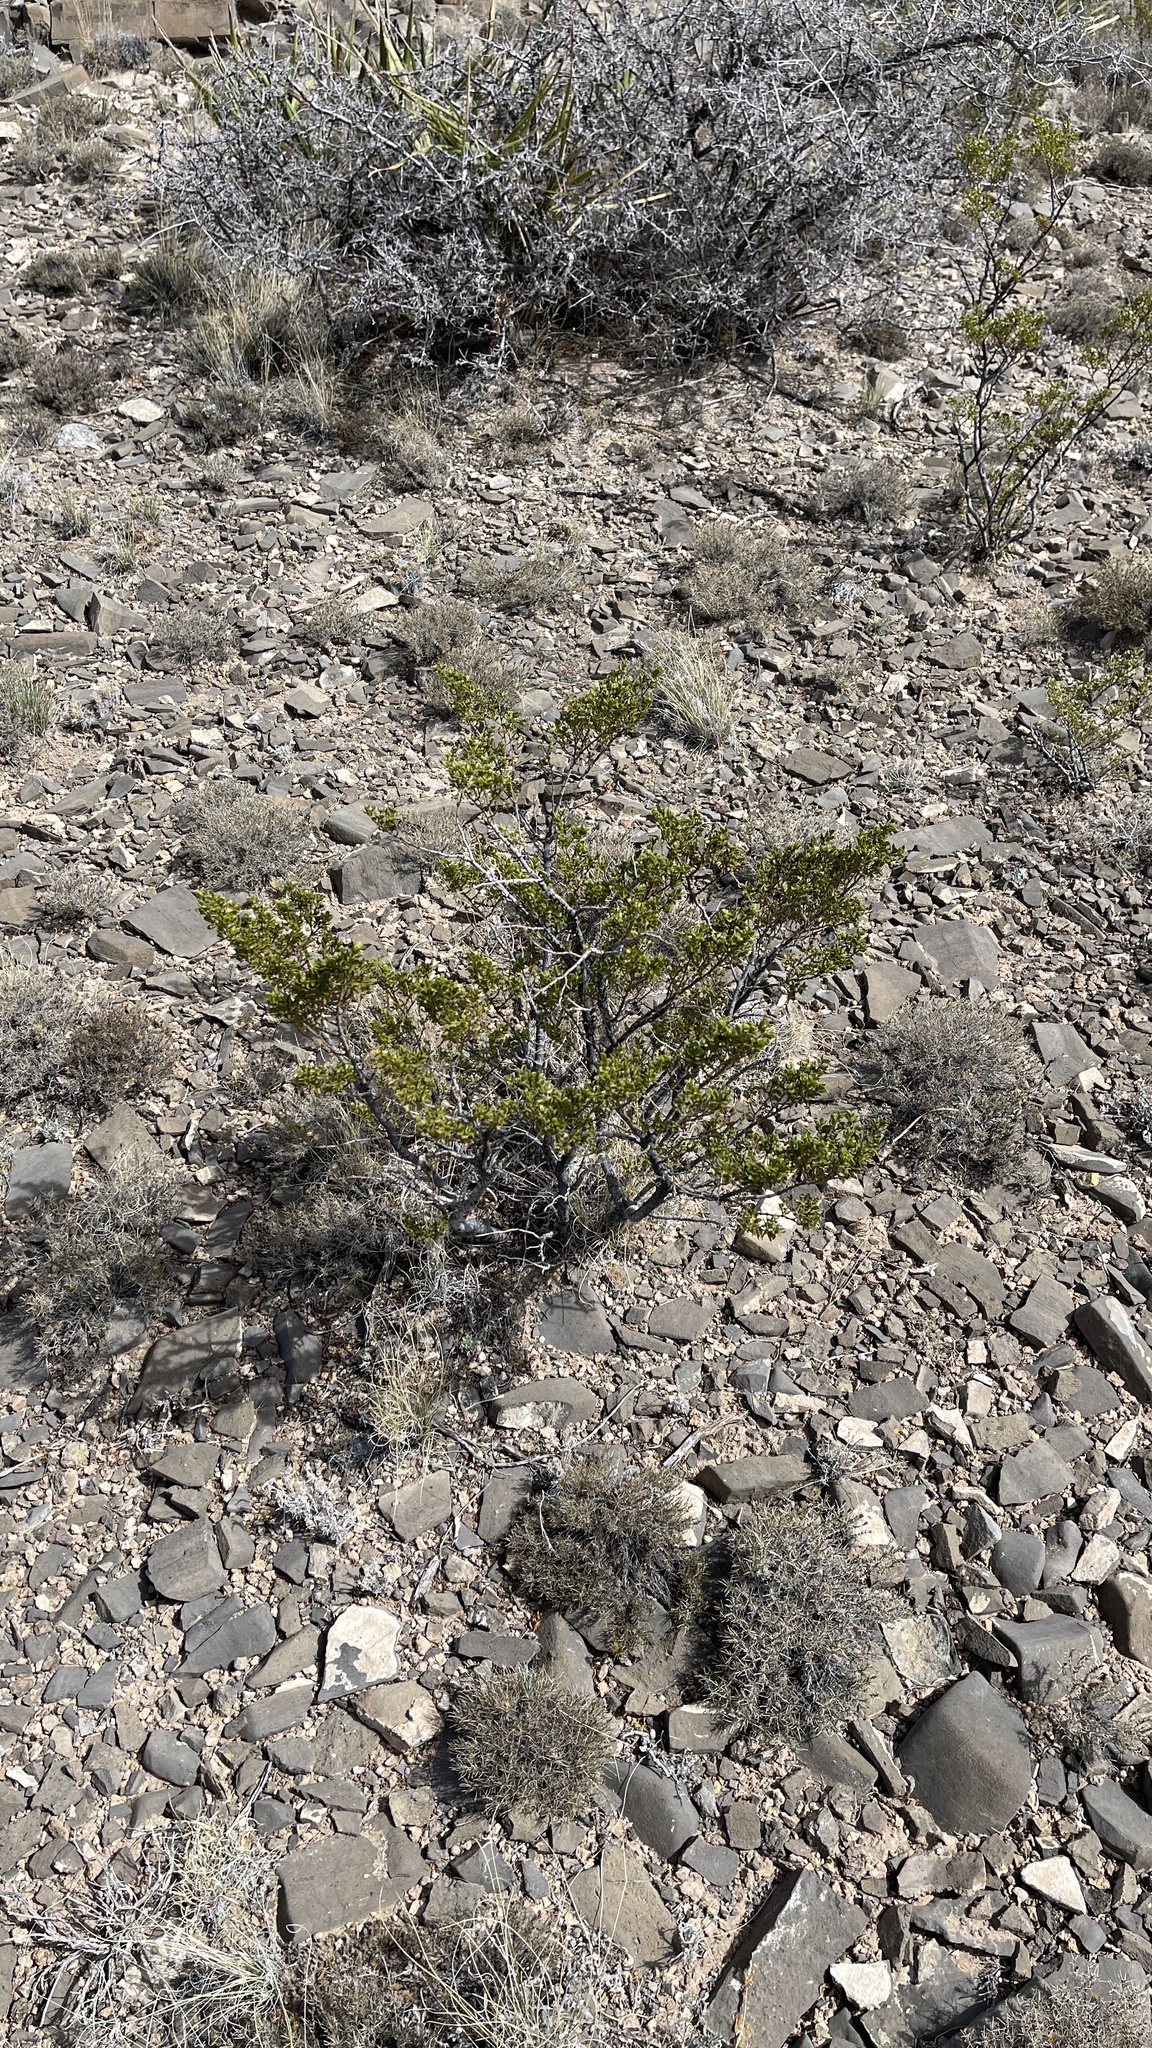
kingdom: Plantae
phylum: Tracheophyta
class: Magnoliopsida
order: Zygophyllales
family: Zygophyllaceae
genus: Larrea
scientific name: Larrea tridentata
